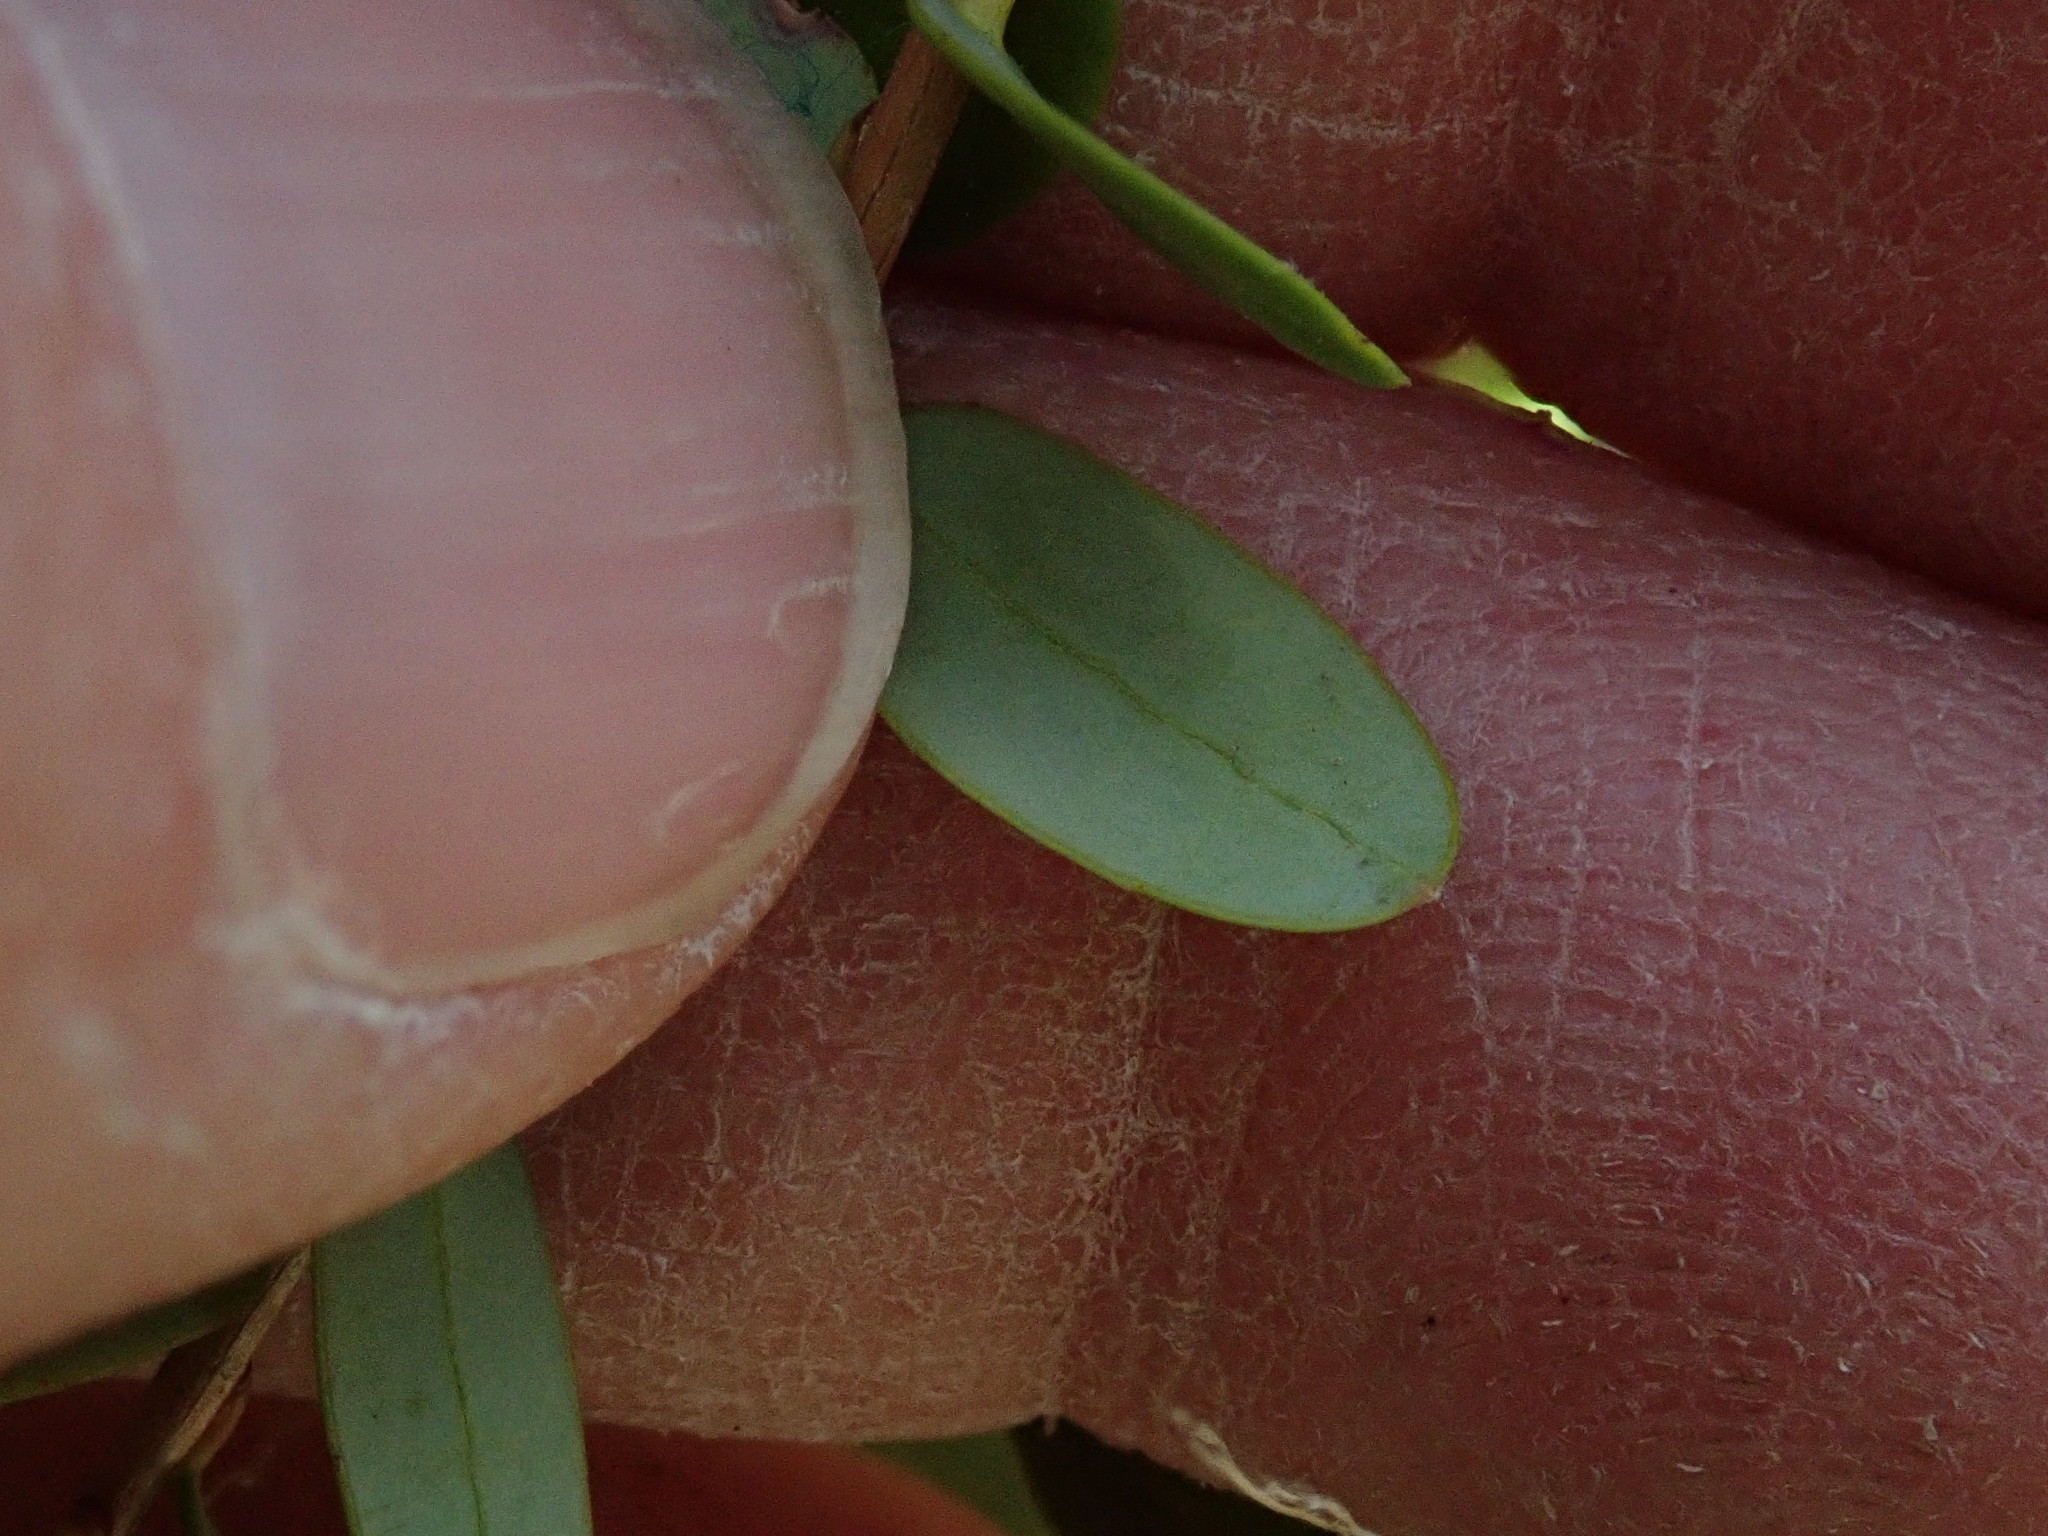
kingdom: Plantae
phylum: Tracheophyta
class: Magnoliopsida
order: Ericales
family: Ericaceae
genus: Vaccinium
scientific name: Vaccinium macrocarpon
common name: American cranberry
